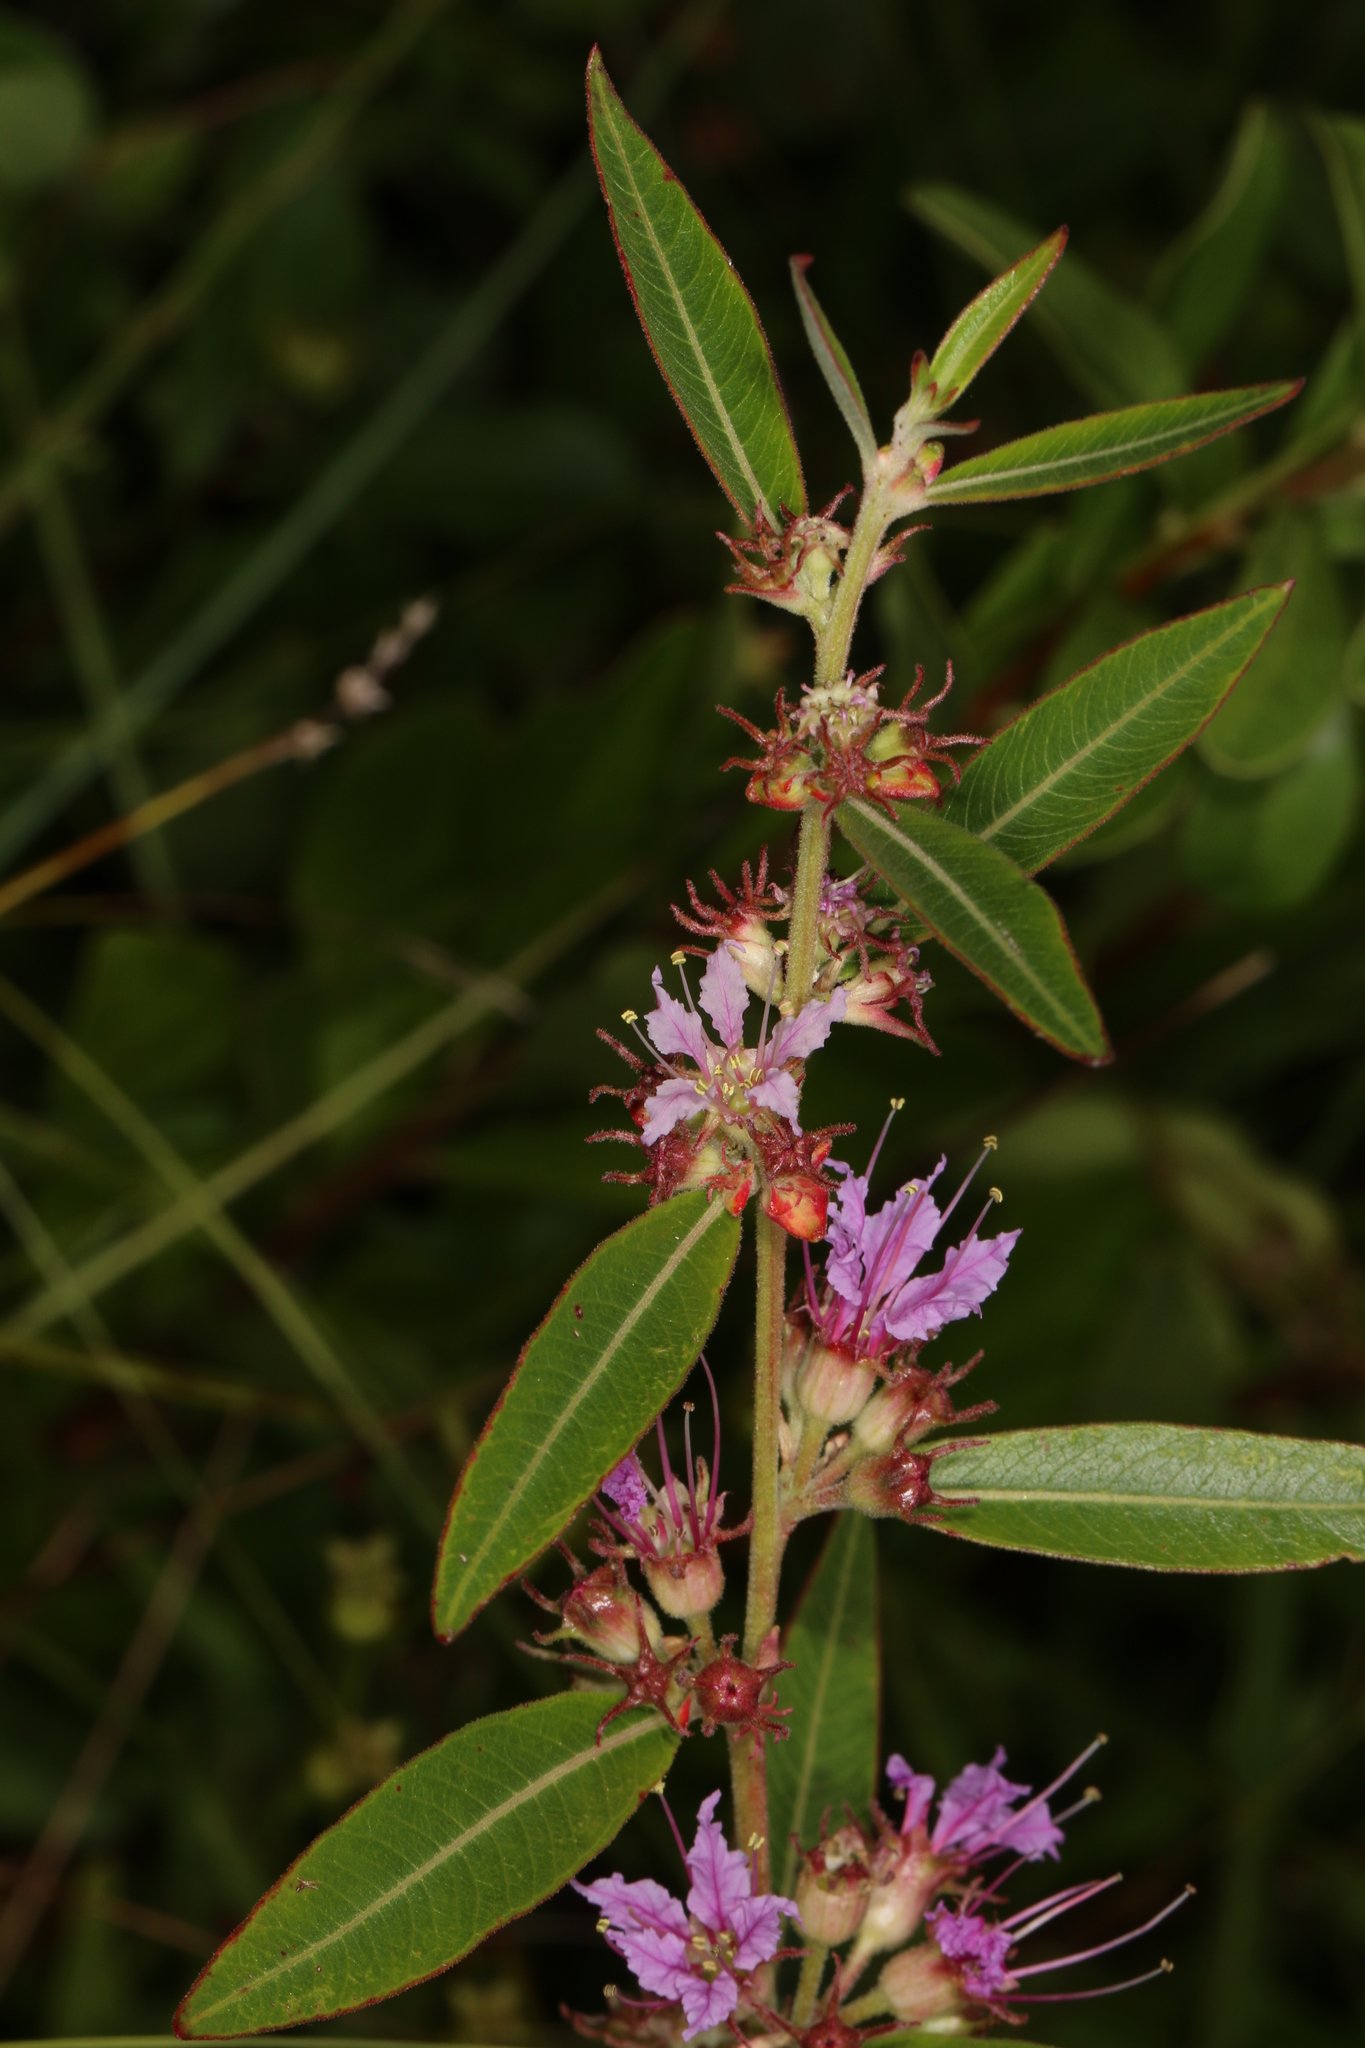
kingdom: Plantae
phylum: Tracheophyta
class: Magnoliopsida
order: Myrtales
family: Lythraceae
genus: Decodon
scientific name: Decodon verticillatus
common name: Hairy swamp loosestrife
